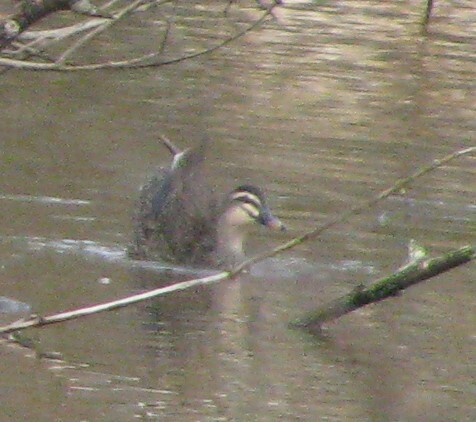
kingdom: Animalia
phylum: Chordata
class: Aves
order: Anseriformes
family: Anatidae
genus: Anas
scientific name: Anas
